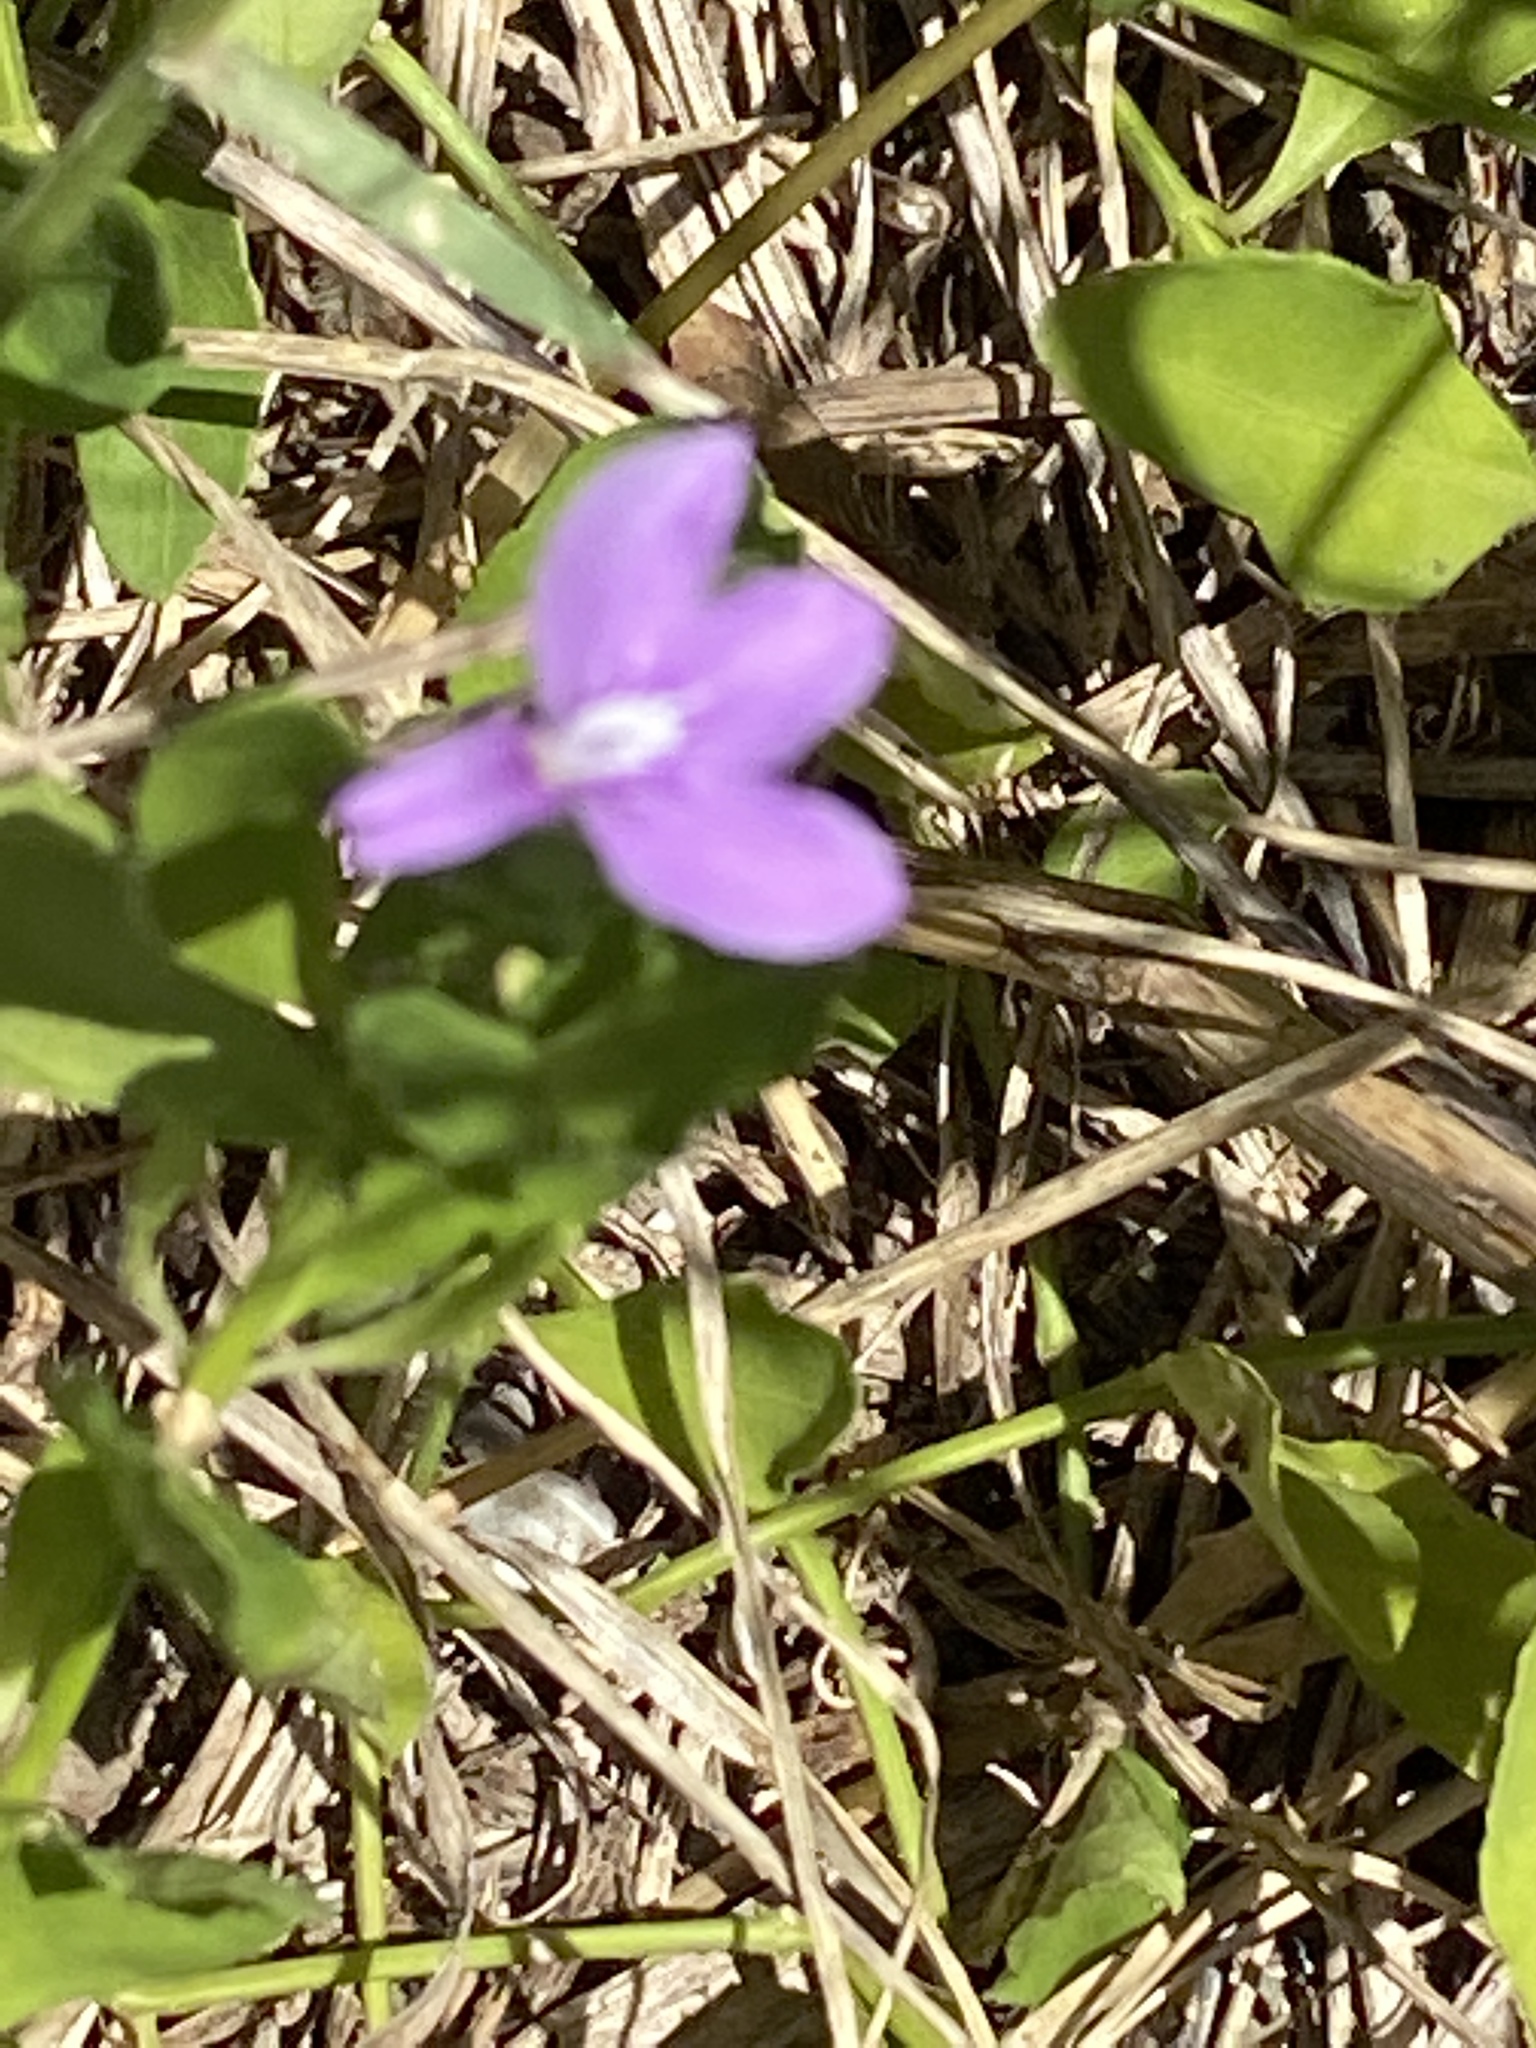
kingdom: Plantae
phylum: Tracheophyta
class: Magnoliopsida
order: Lamiales
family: Acanthaceae
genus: Justicia
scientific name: Justicia pilosella
